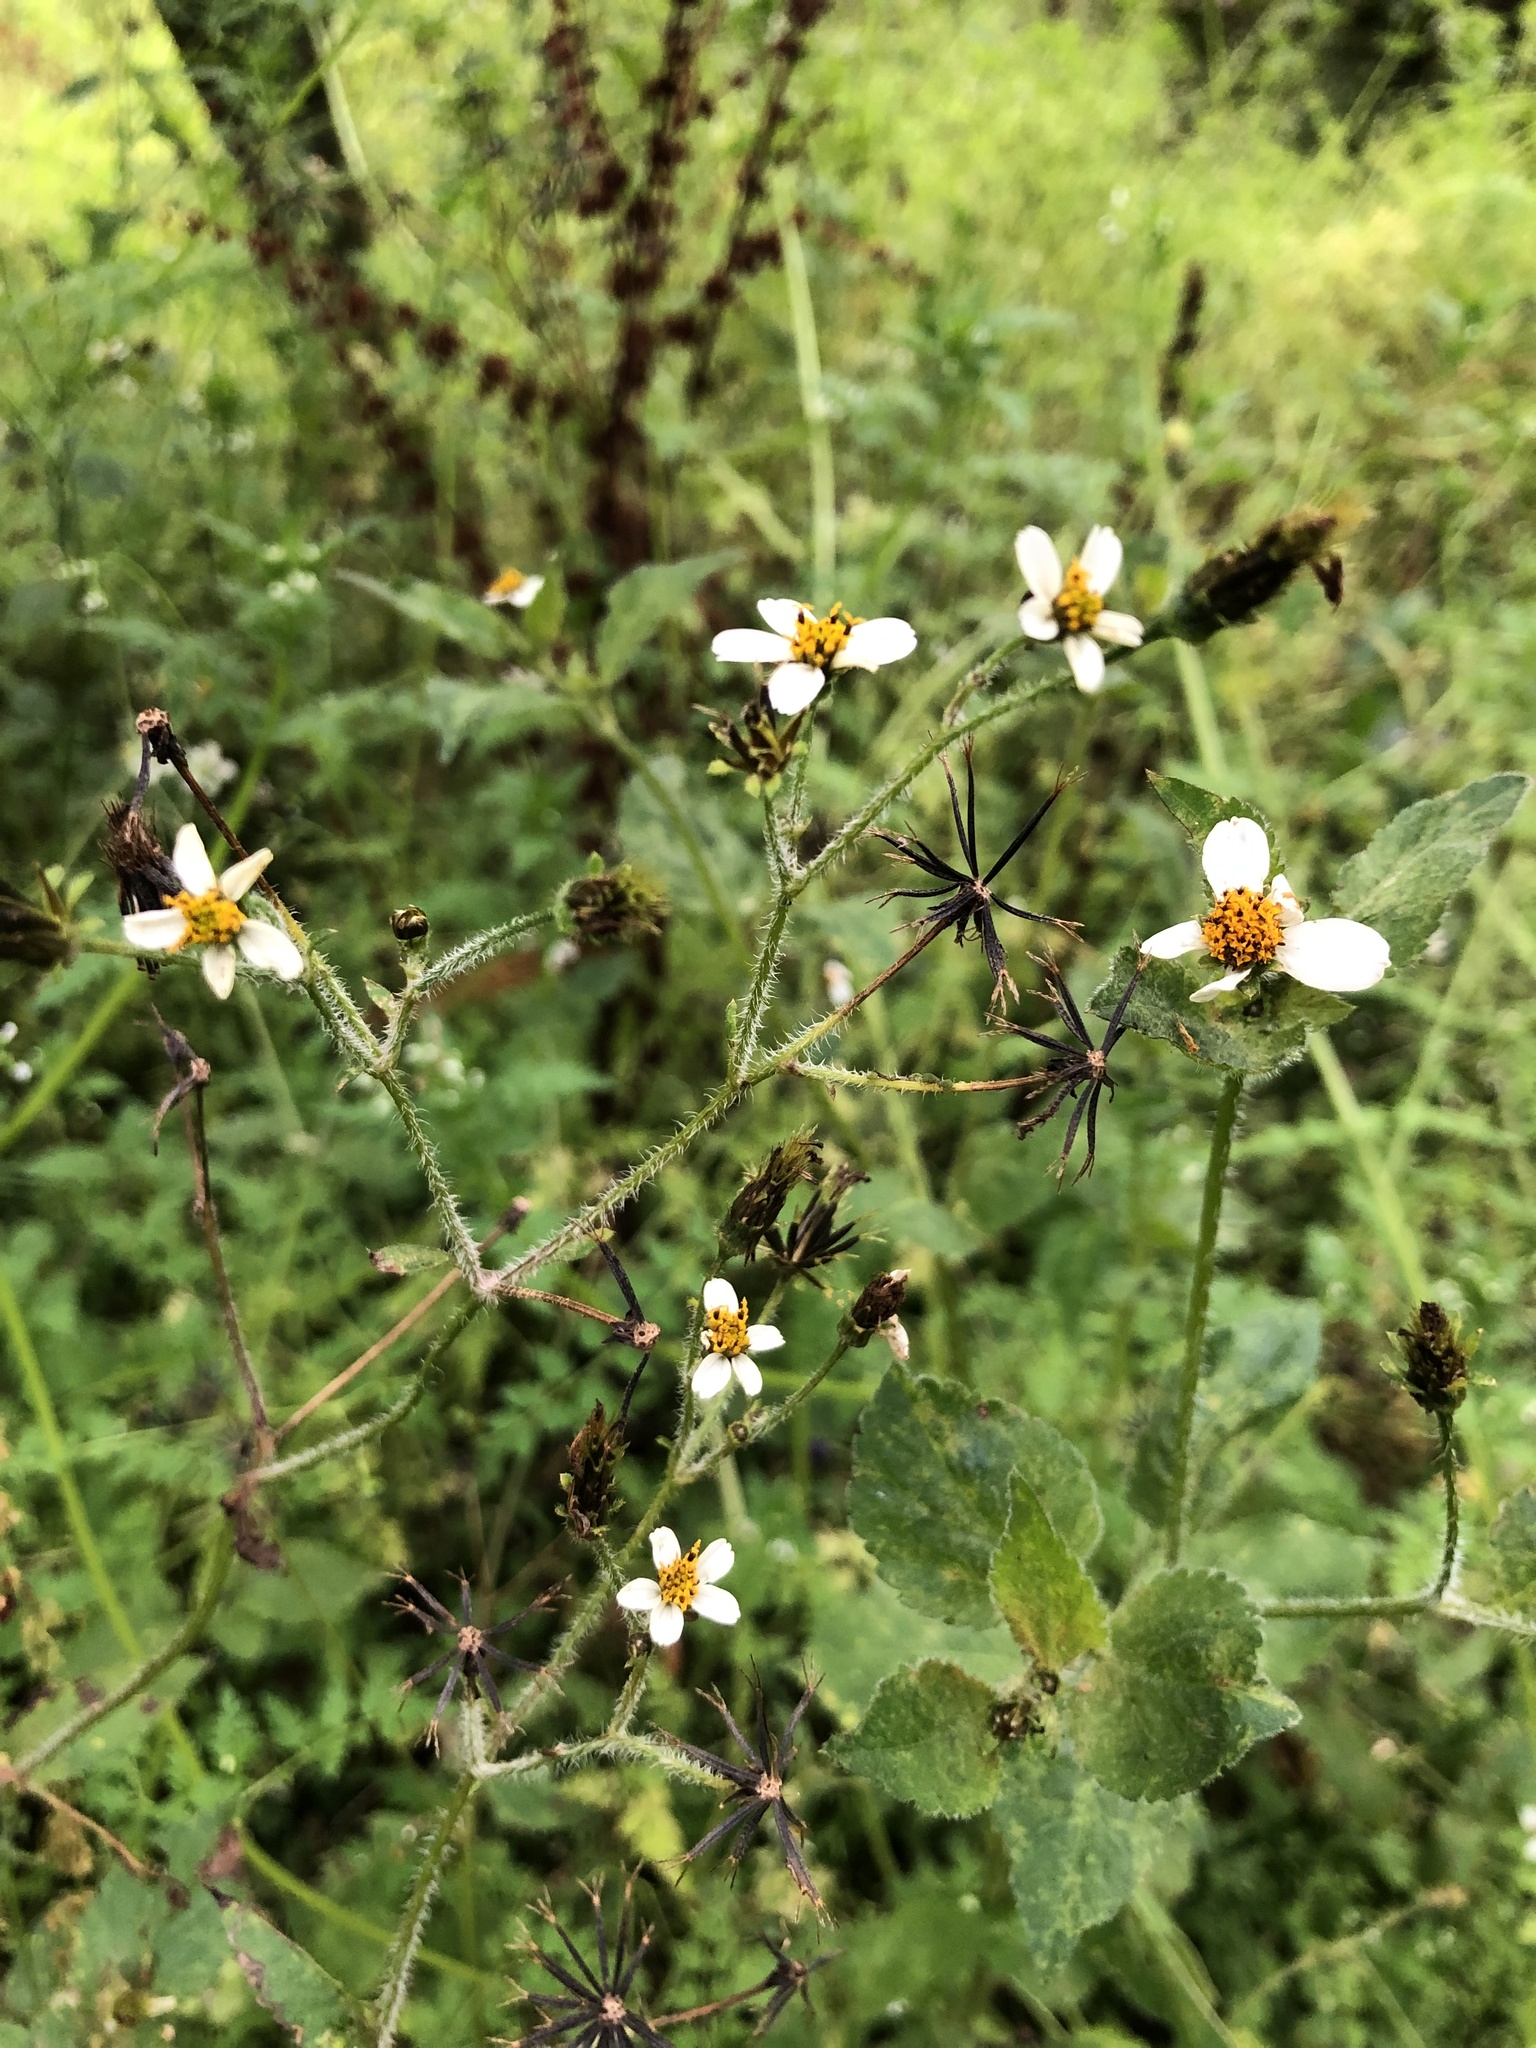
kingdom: Plantae
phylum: Tracheophyta
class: Magnoliopsida
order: Asterales
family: Asteraceae
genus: Bidens
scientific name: Bidens alba
